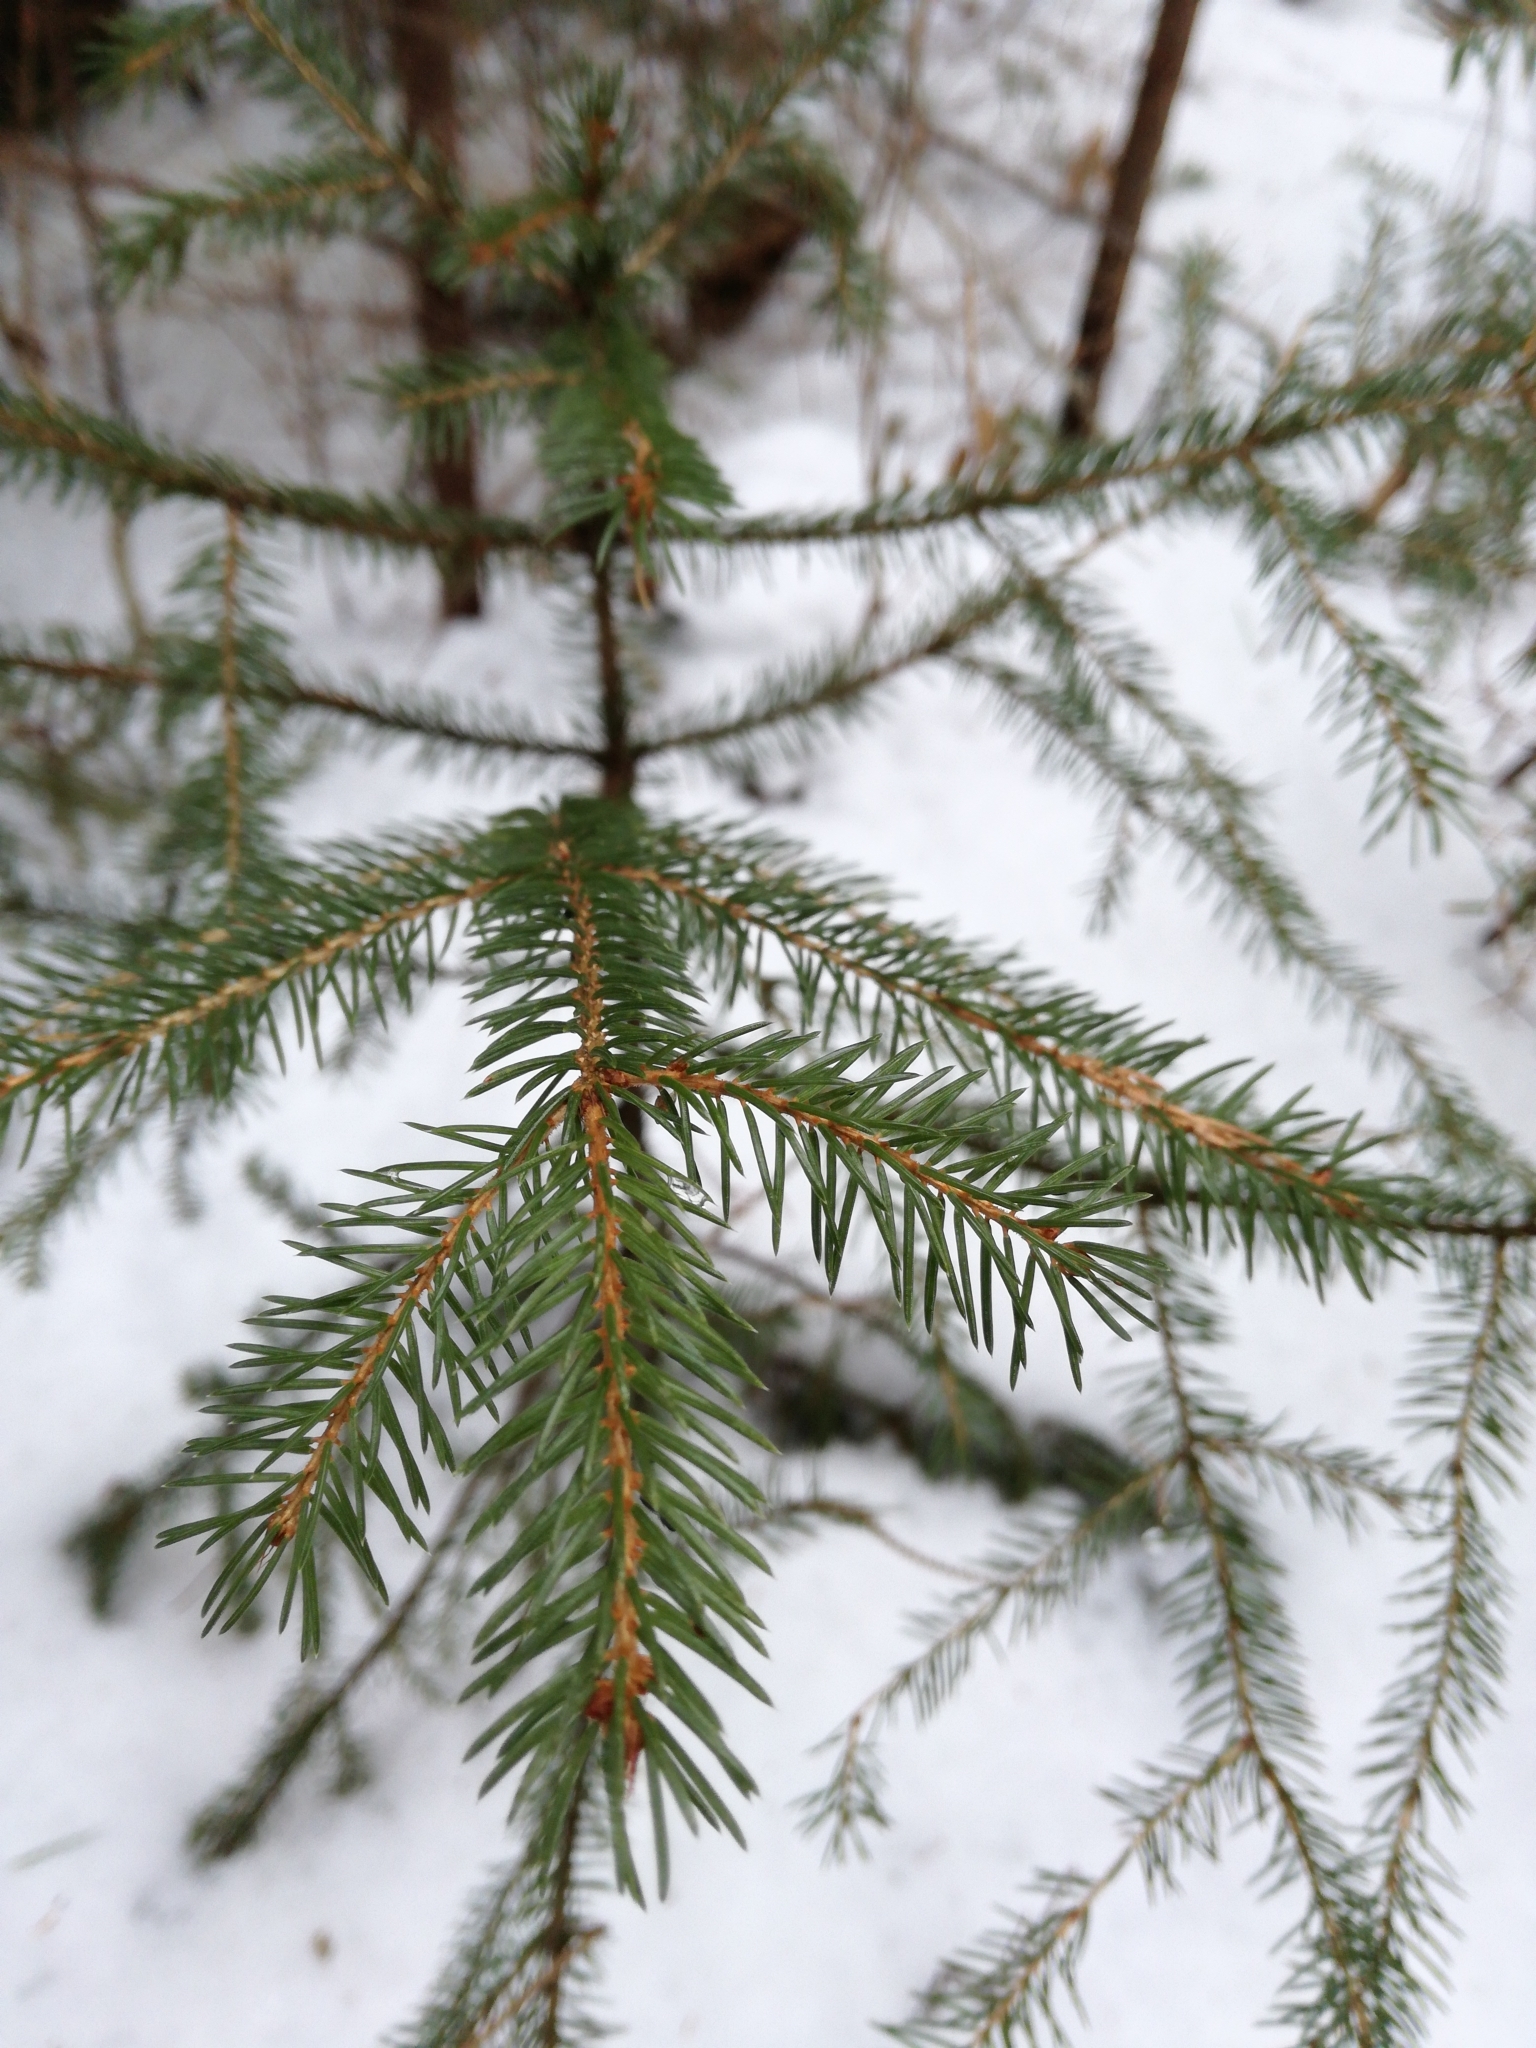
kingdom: Plantae
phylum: Tracheophyta
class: Pinopsida
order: Pinales
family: Pinaceae
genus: Picea
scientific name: Picea rubens
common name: Red spruce
